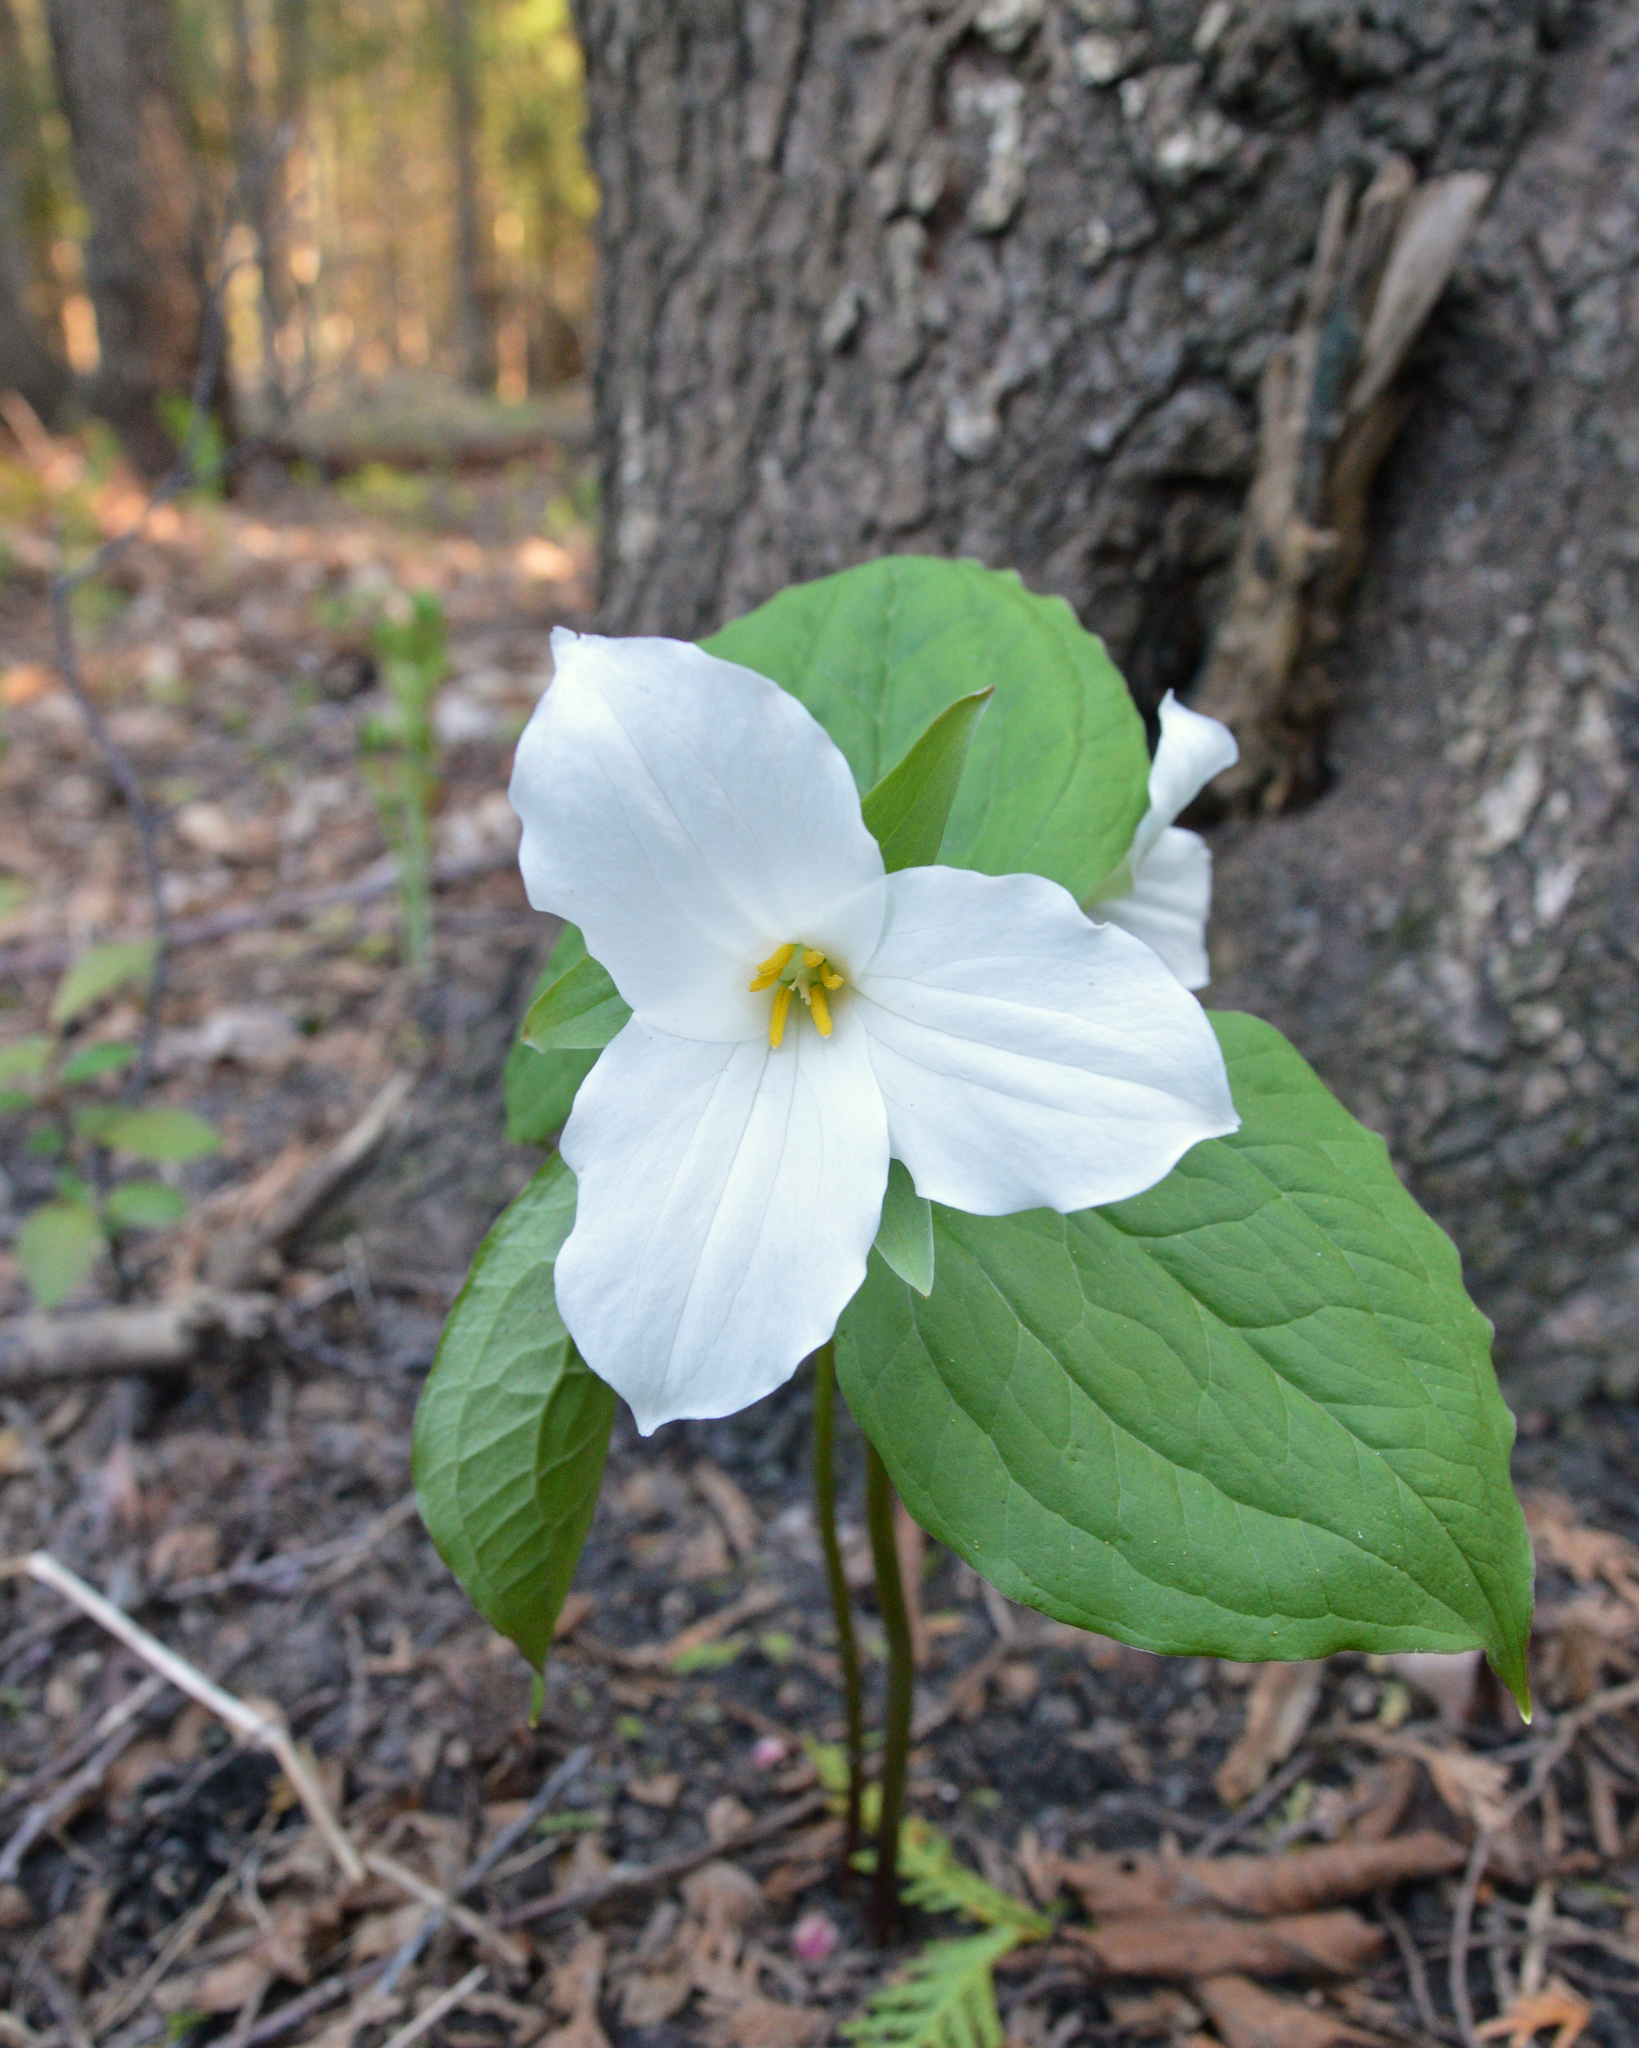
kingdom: Plantae
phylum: Tracheophyta
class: Liliopsida
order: Liliales
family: Melanthiaceae
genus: Trillium
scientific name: Trillium grandiflorum
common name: Great white trillium
